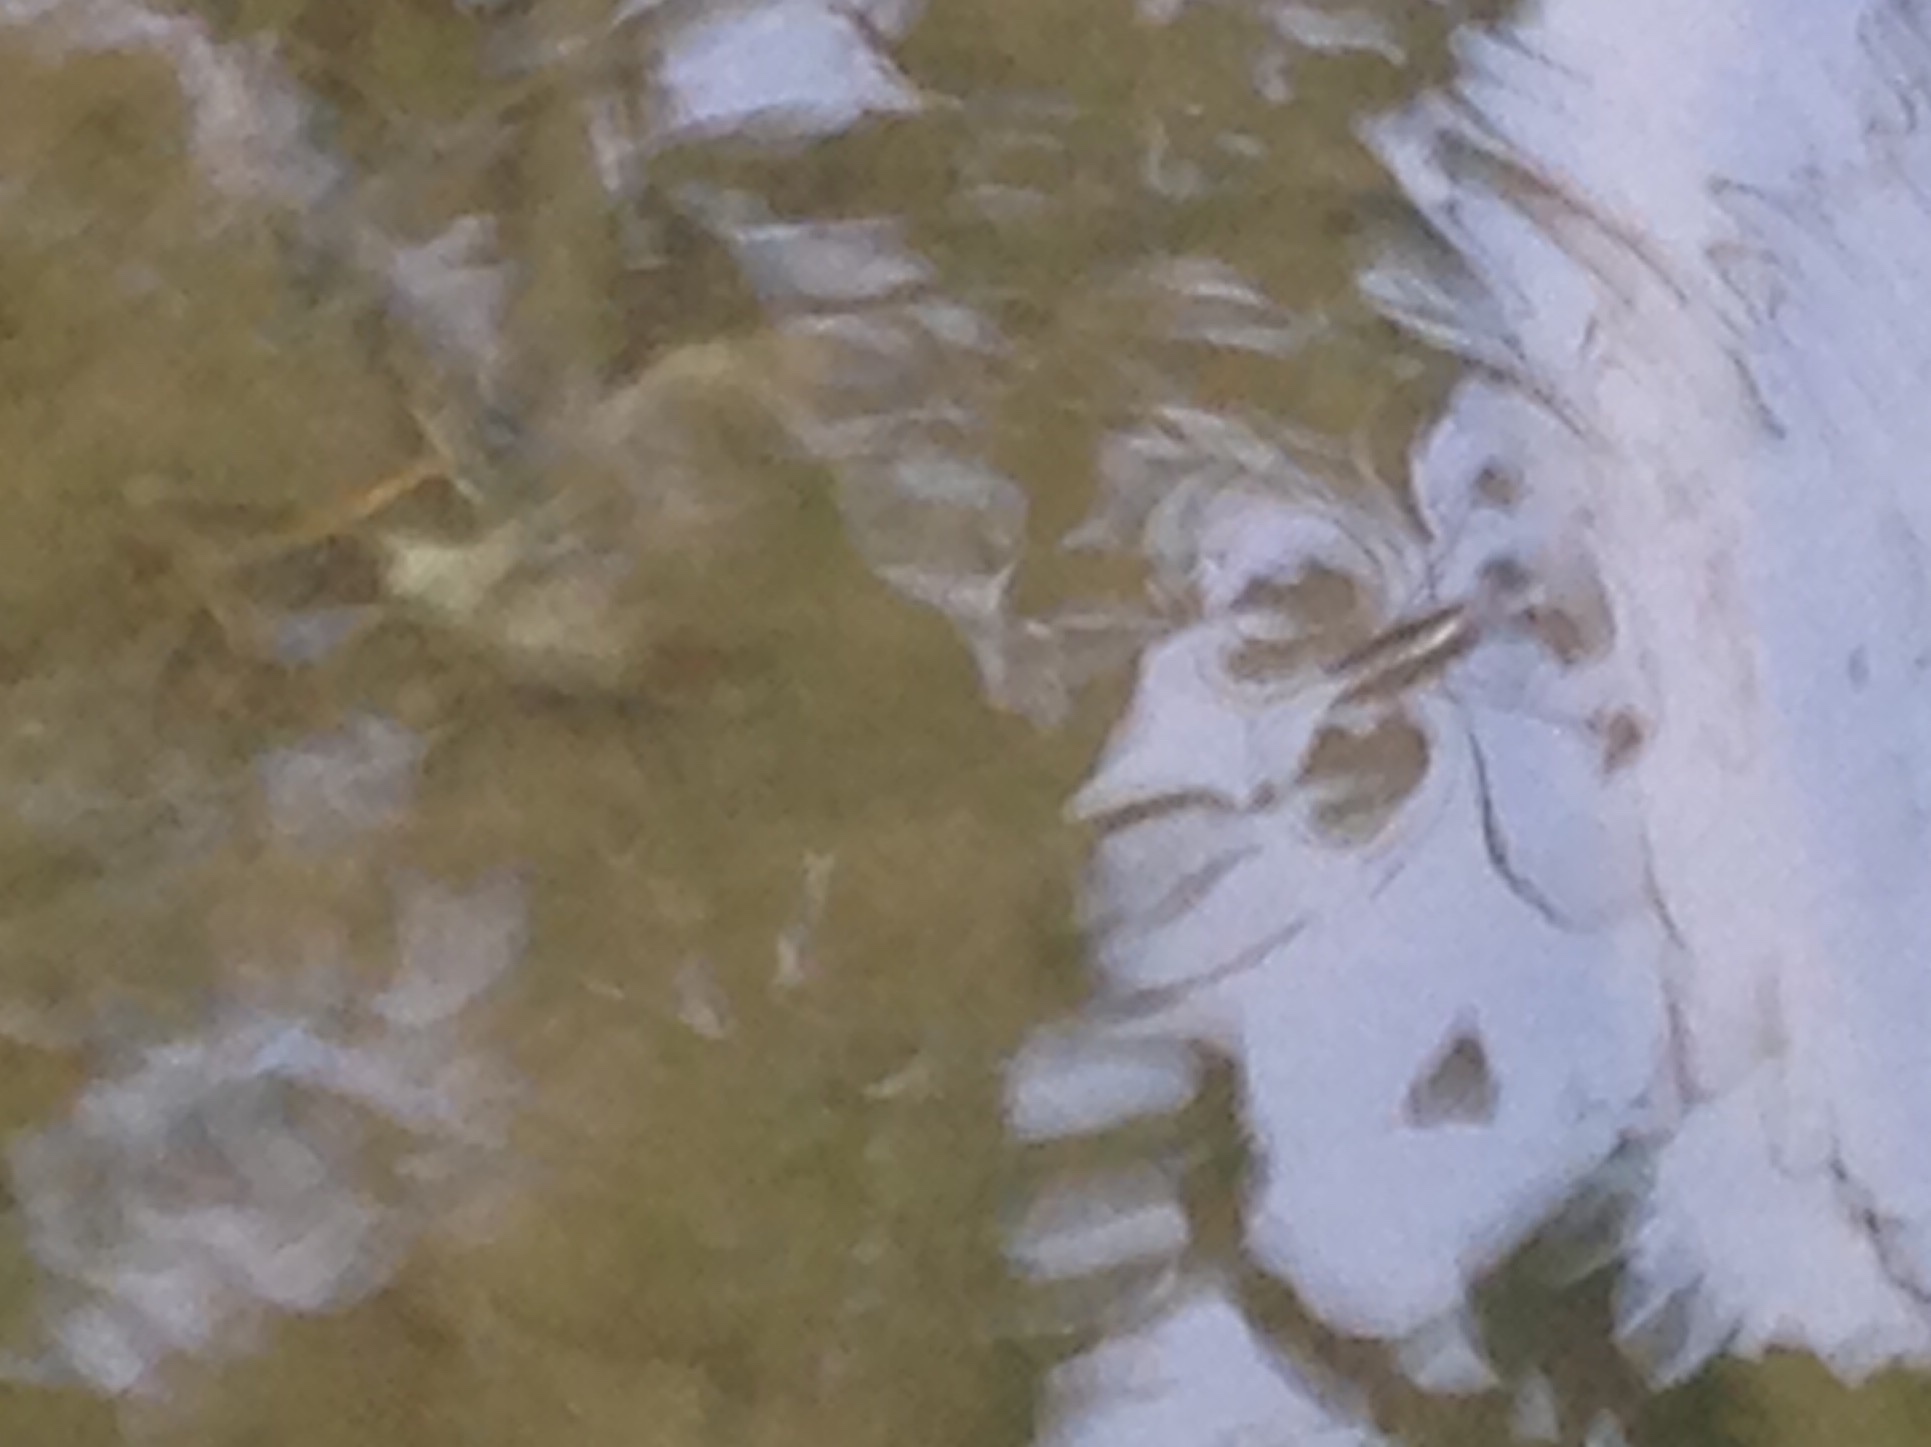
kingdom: Animalia
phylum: Arthropoda
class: Insecta
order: Hemiptera
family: Gerridae
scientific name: Gerridae
